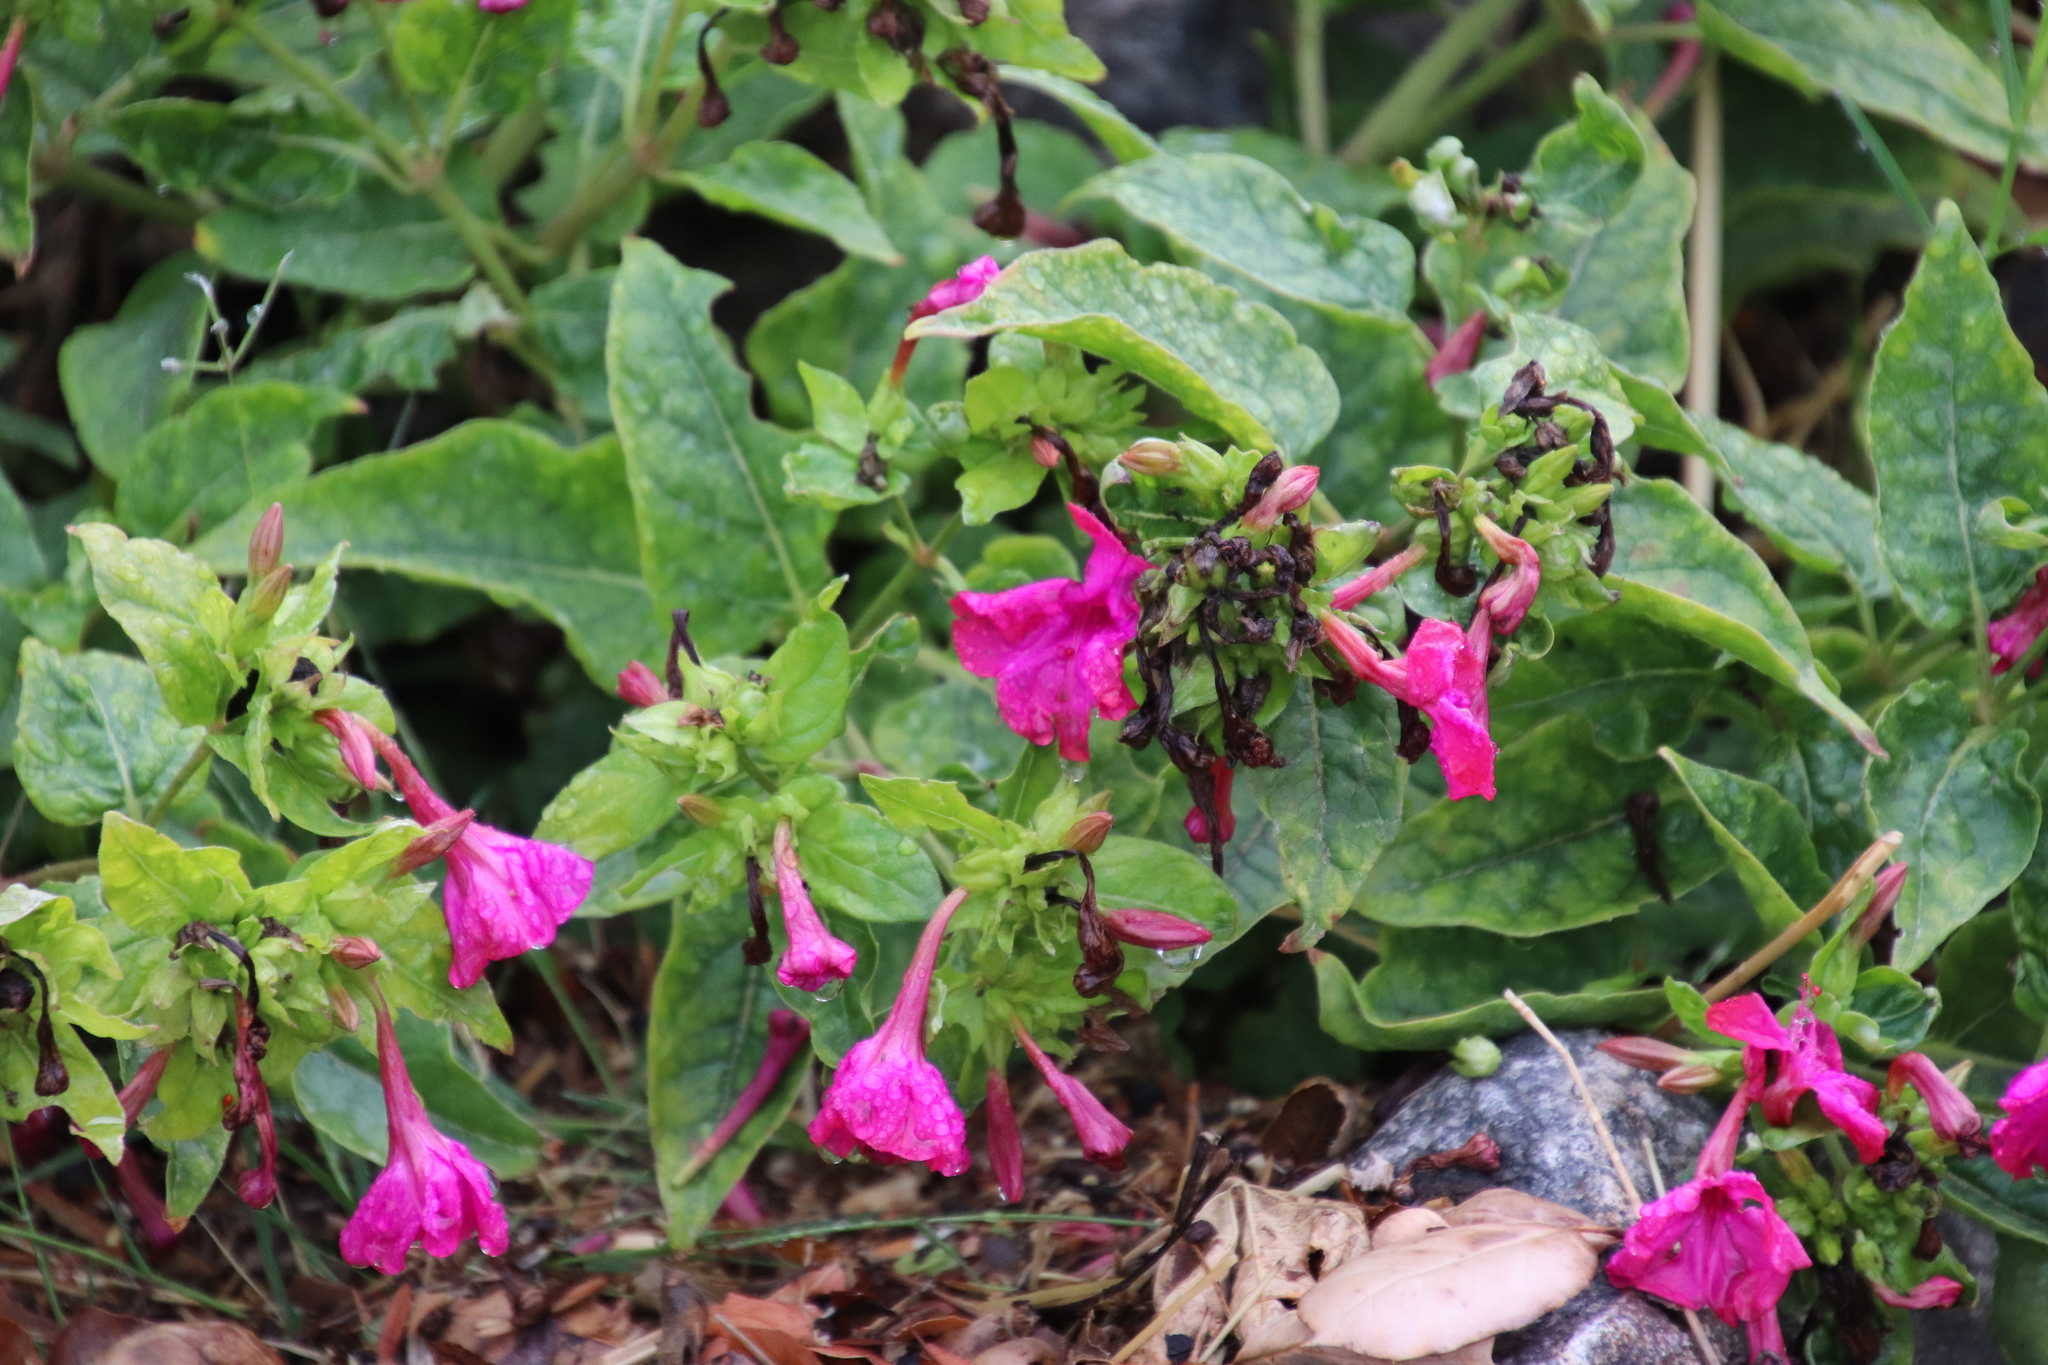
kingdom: Plantae
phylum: Tracheophyta
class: Magnoliopsida
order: Caryophyllales
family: Nyctaginaceae
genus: Mirabilis
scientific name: Mirabilis jalapa
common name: Marvel-of-peru
